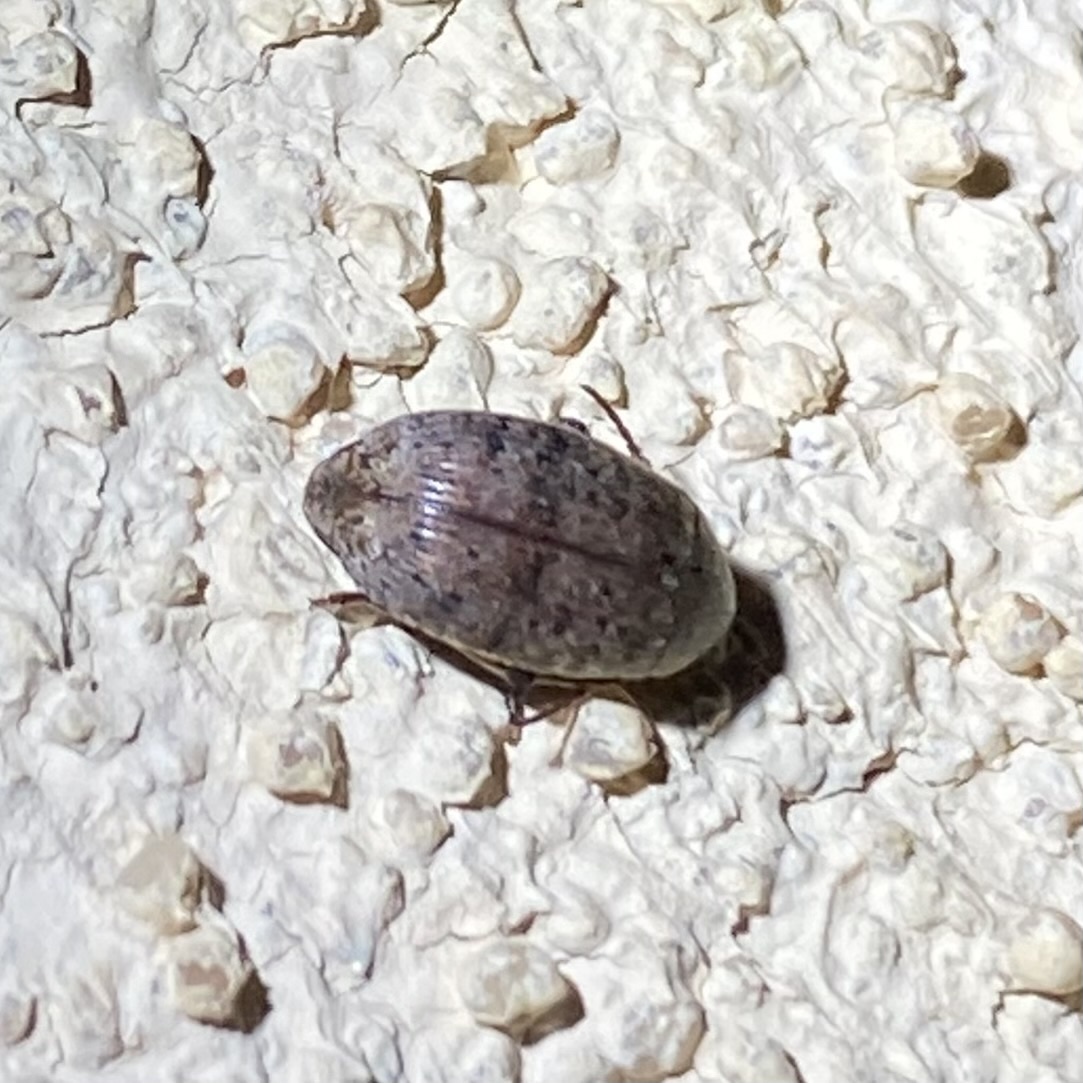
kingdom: Animalia
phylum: Arthropoda
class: Insecta
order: Coleoptera
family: Chrysomelidae
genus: Amblycerus
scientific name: Amblycerus robiniae
